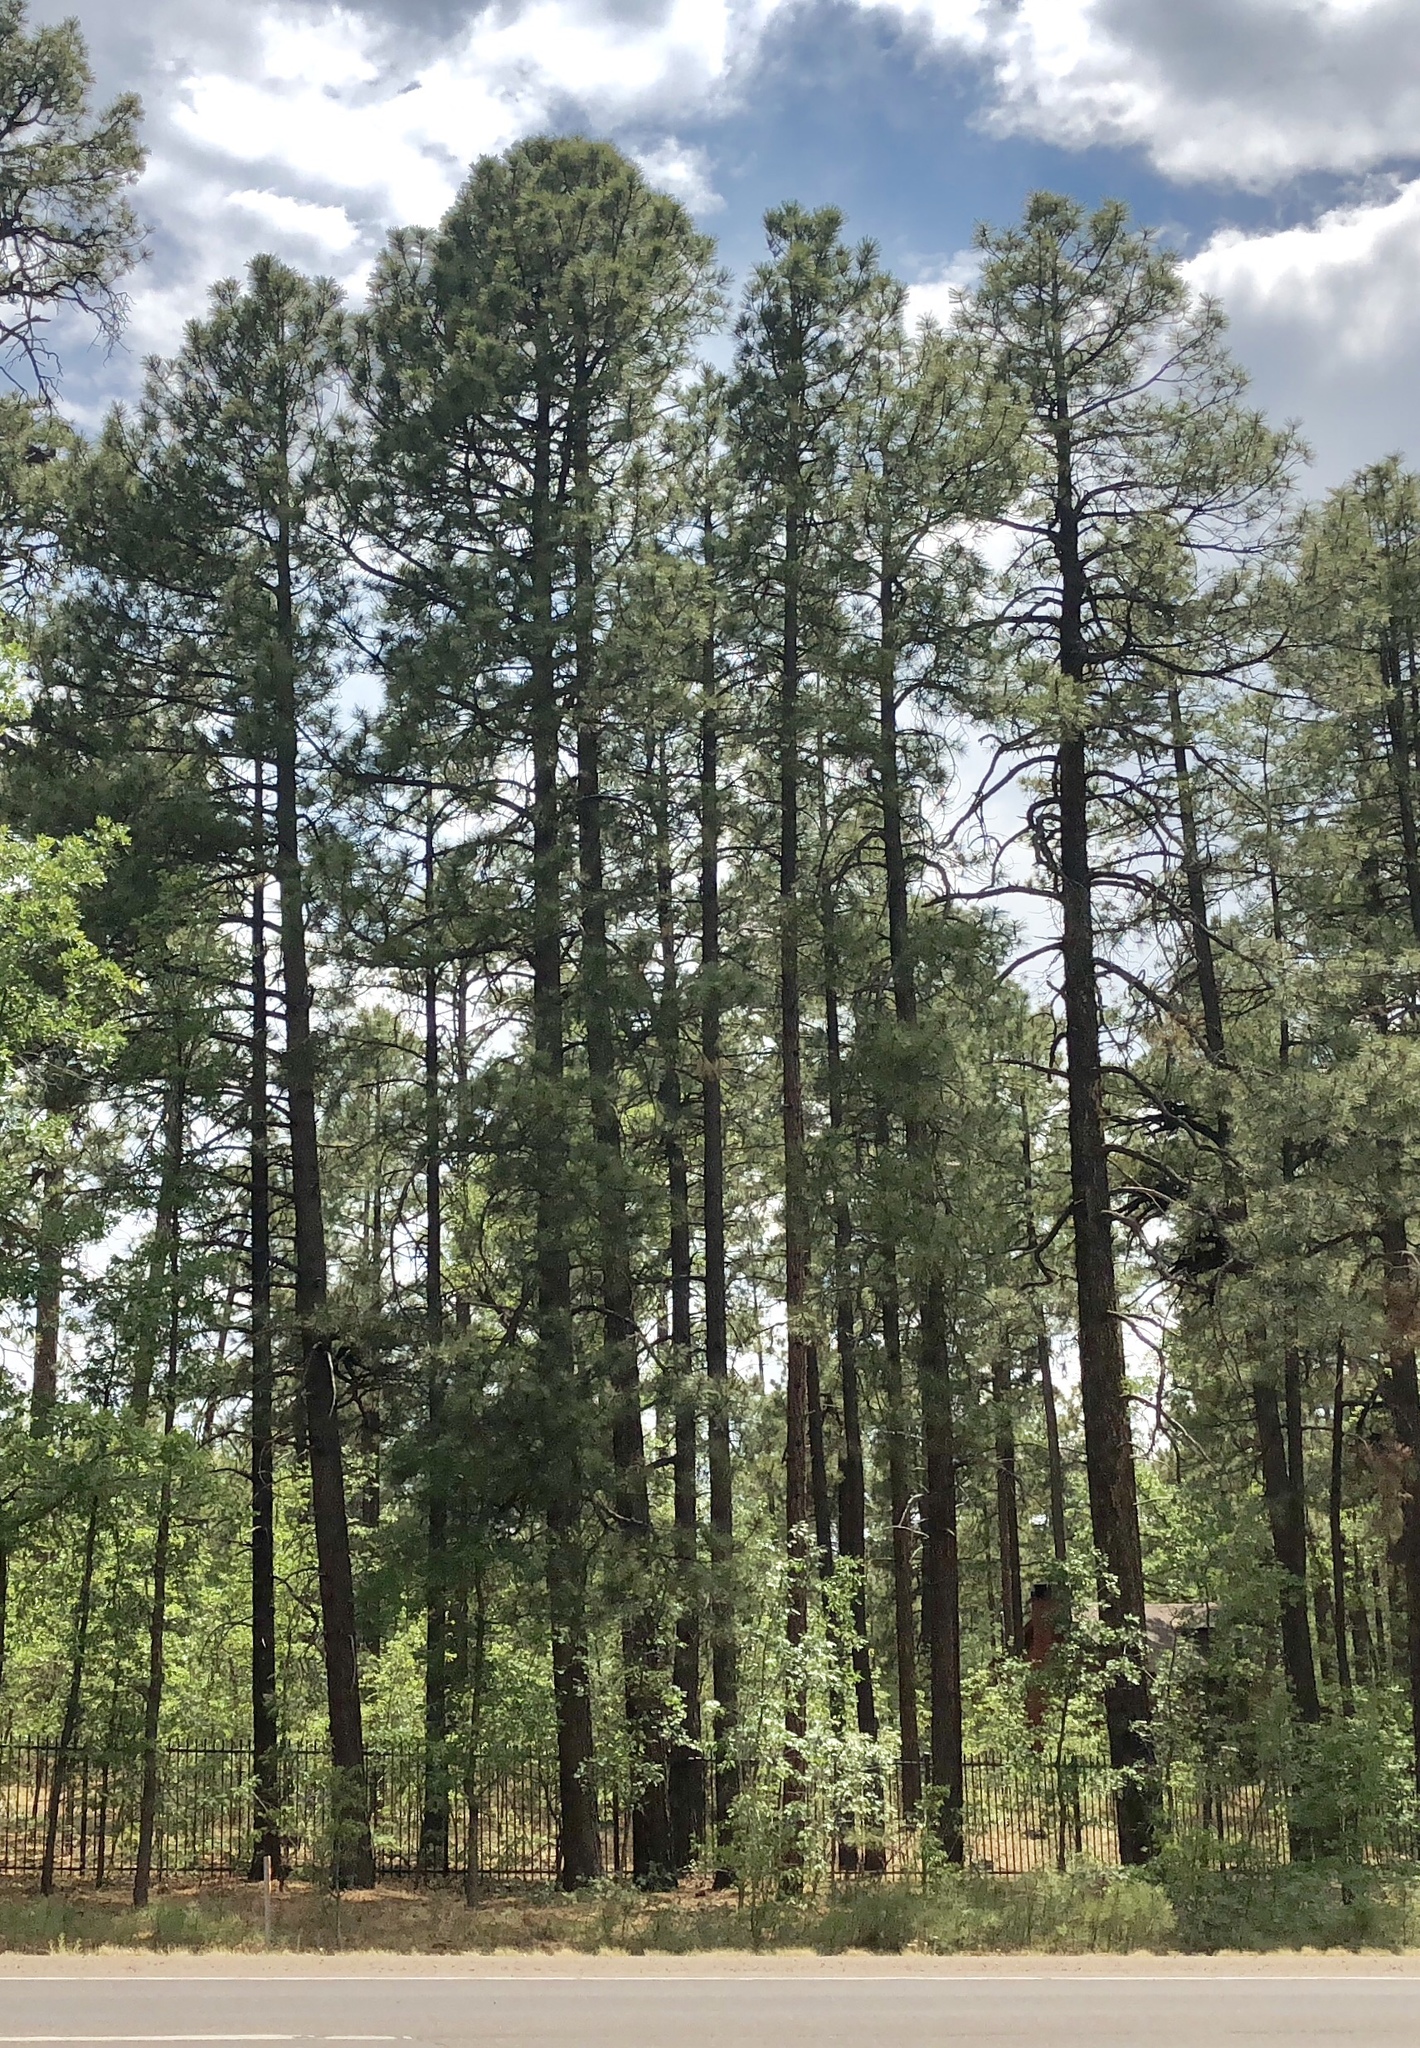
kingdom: Plantae
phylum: Tracheophyta
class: Pinopsida
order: Pinales
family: Pinaceae
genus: Pinus
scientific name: Pinus ponderosa
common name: Western yellow-pine
